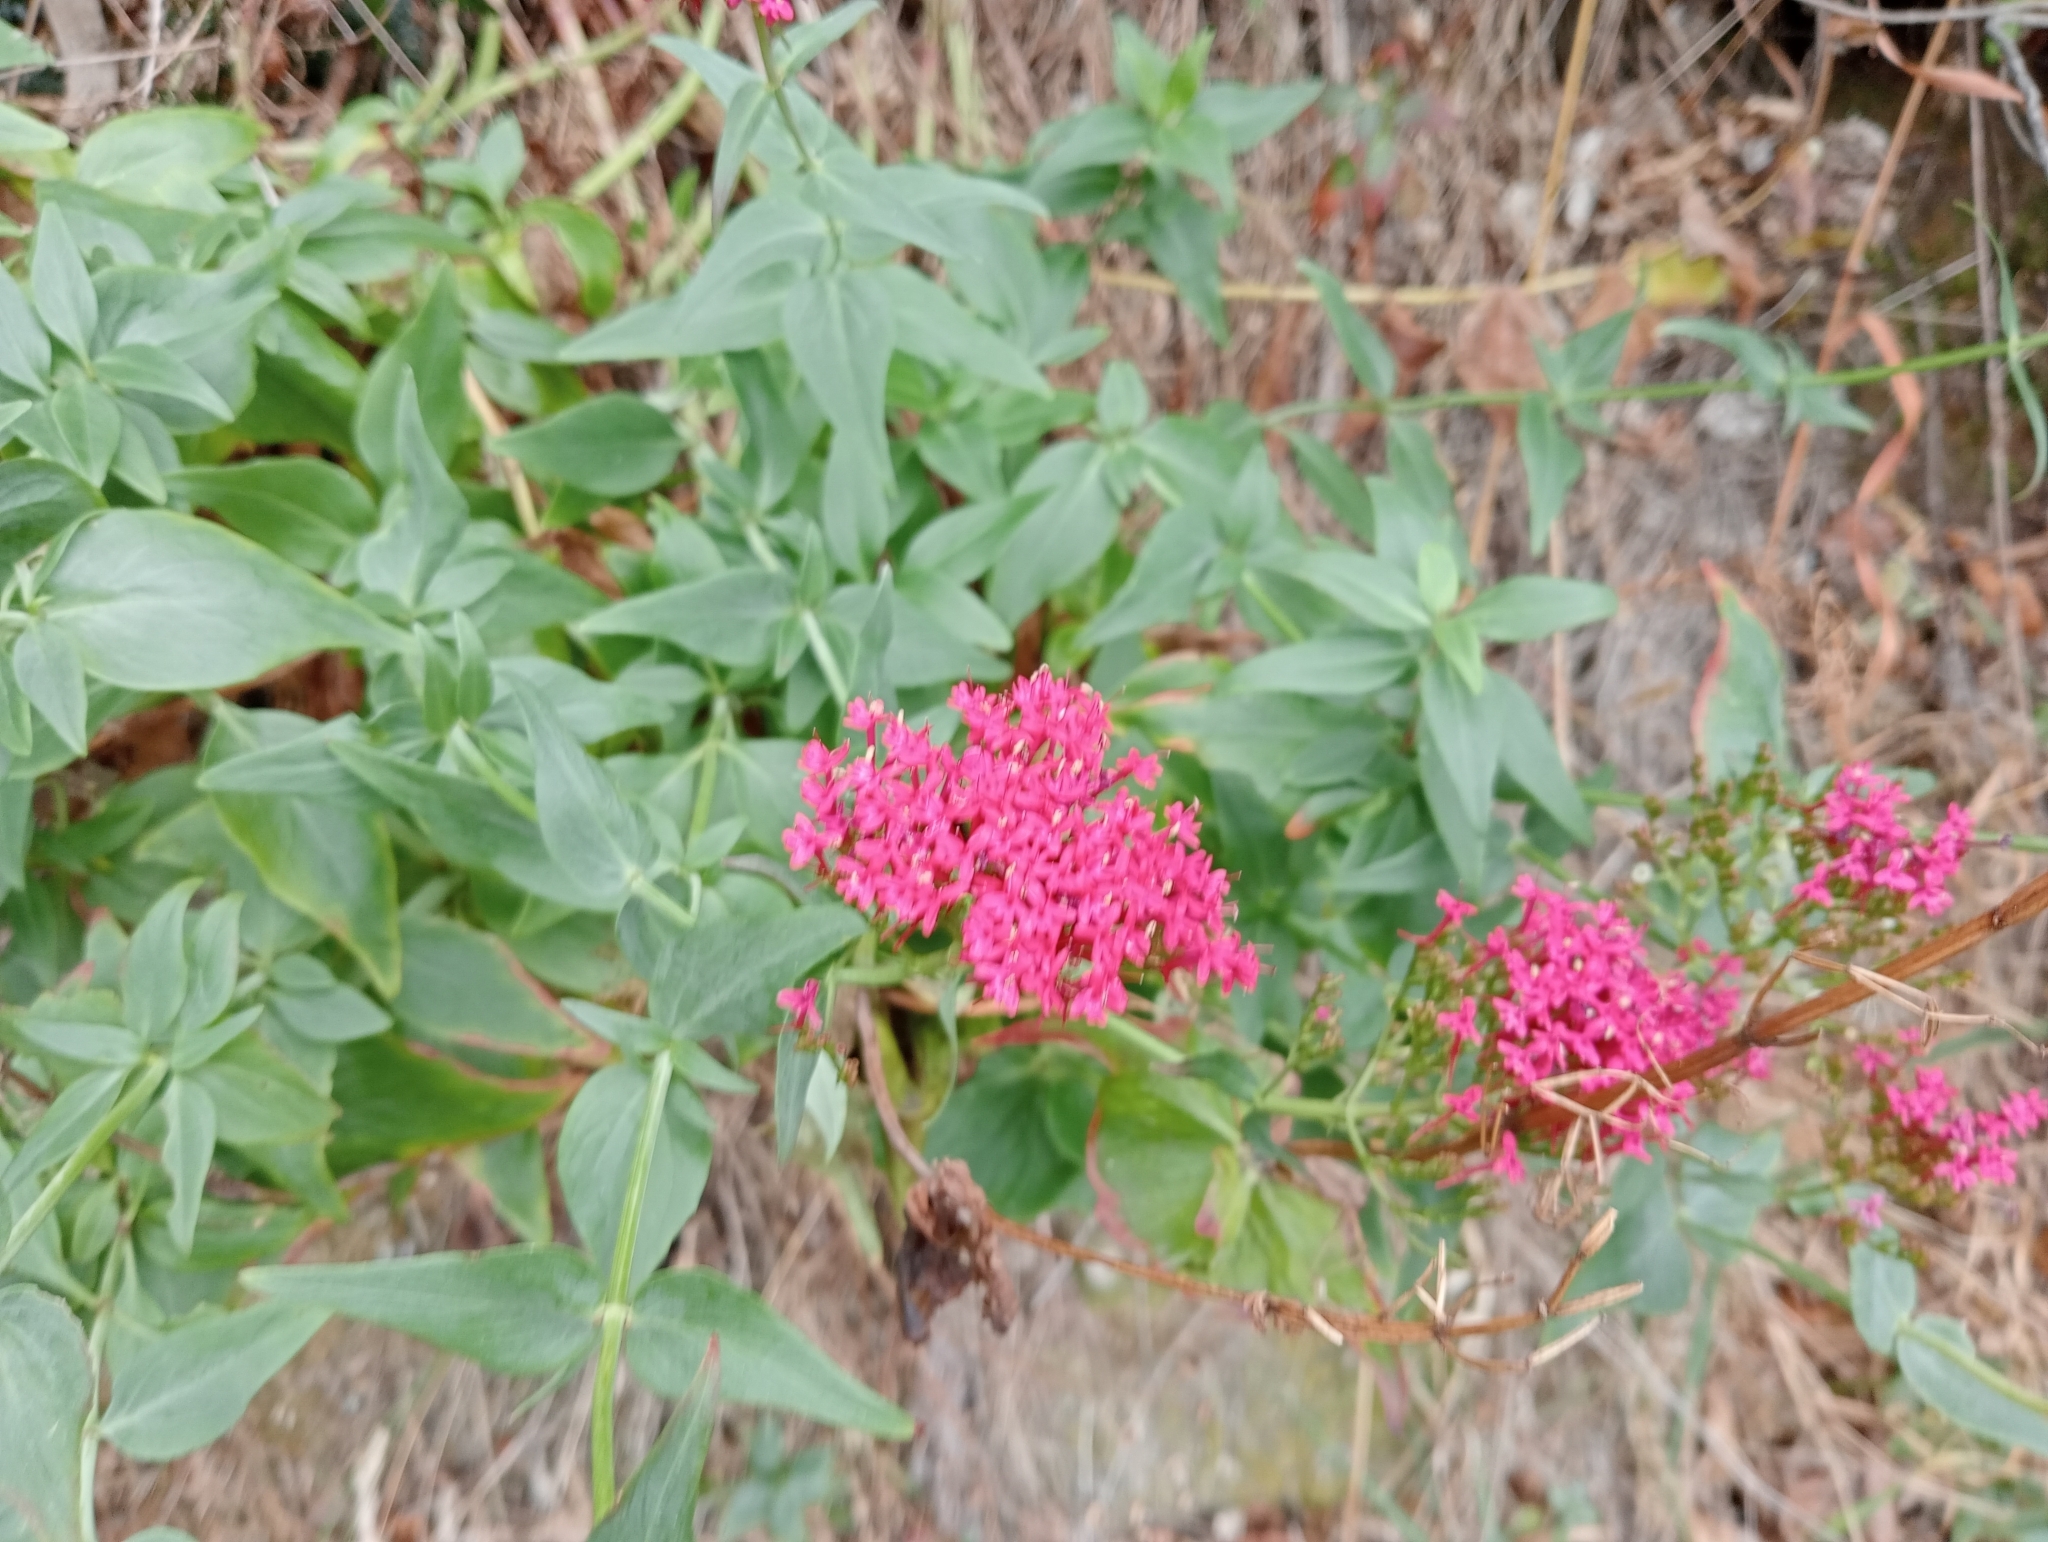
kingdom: Plantae
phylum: Tracheophyta
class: Magnoliopsida
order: Dipsacales
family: Caprifoliaceae
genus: Centranthus
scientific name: Centranthus ruber
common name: Red valerian
